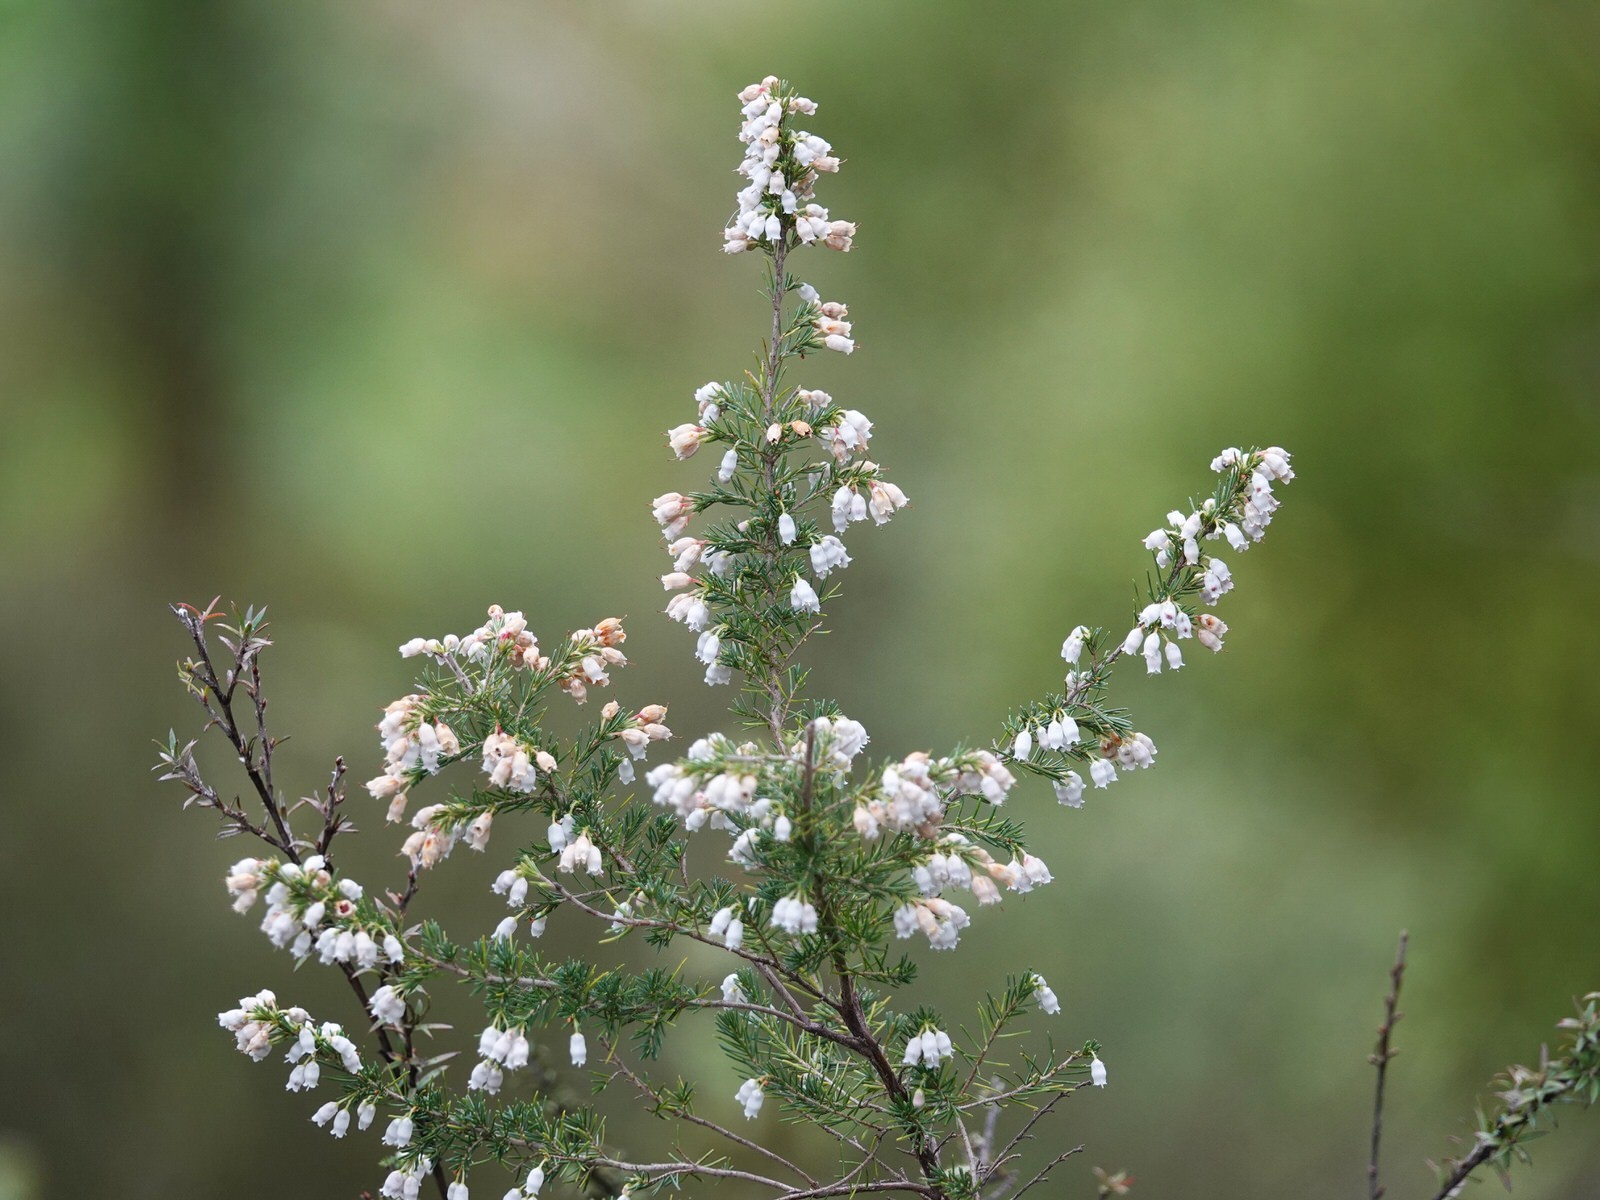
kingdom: Plantae
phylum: Tracheophyta
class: Magnoliopsida
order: Ericales
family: Ericaceae
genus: Erica
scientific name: Erica lusitanica
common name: Spanish heath
